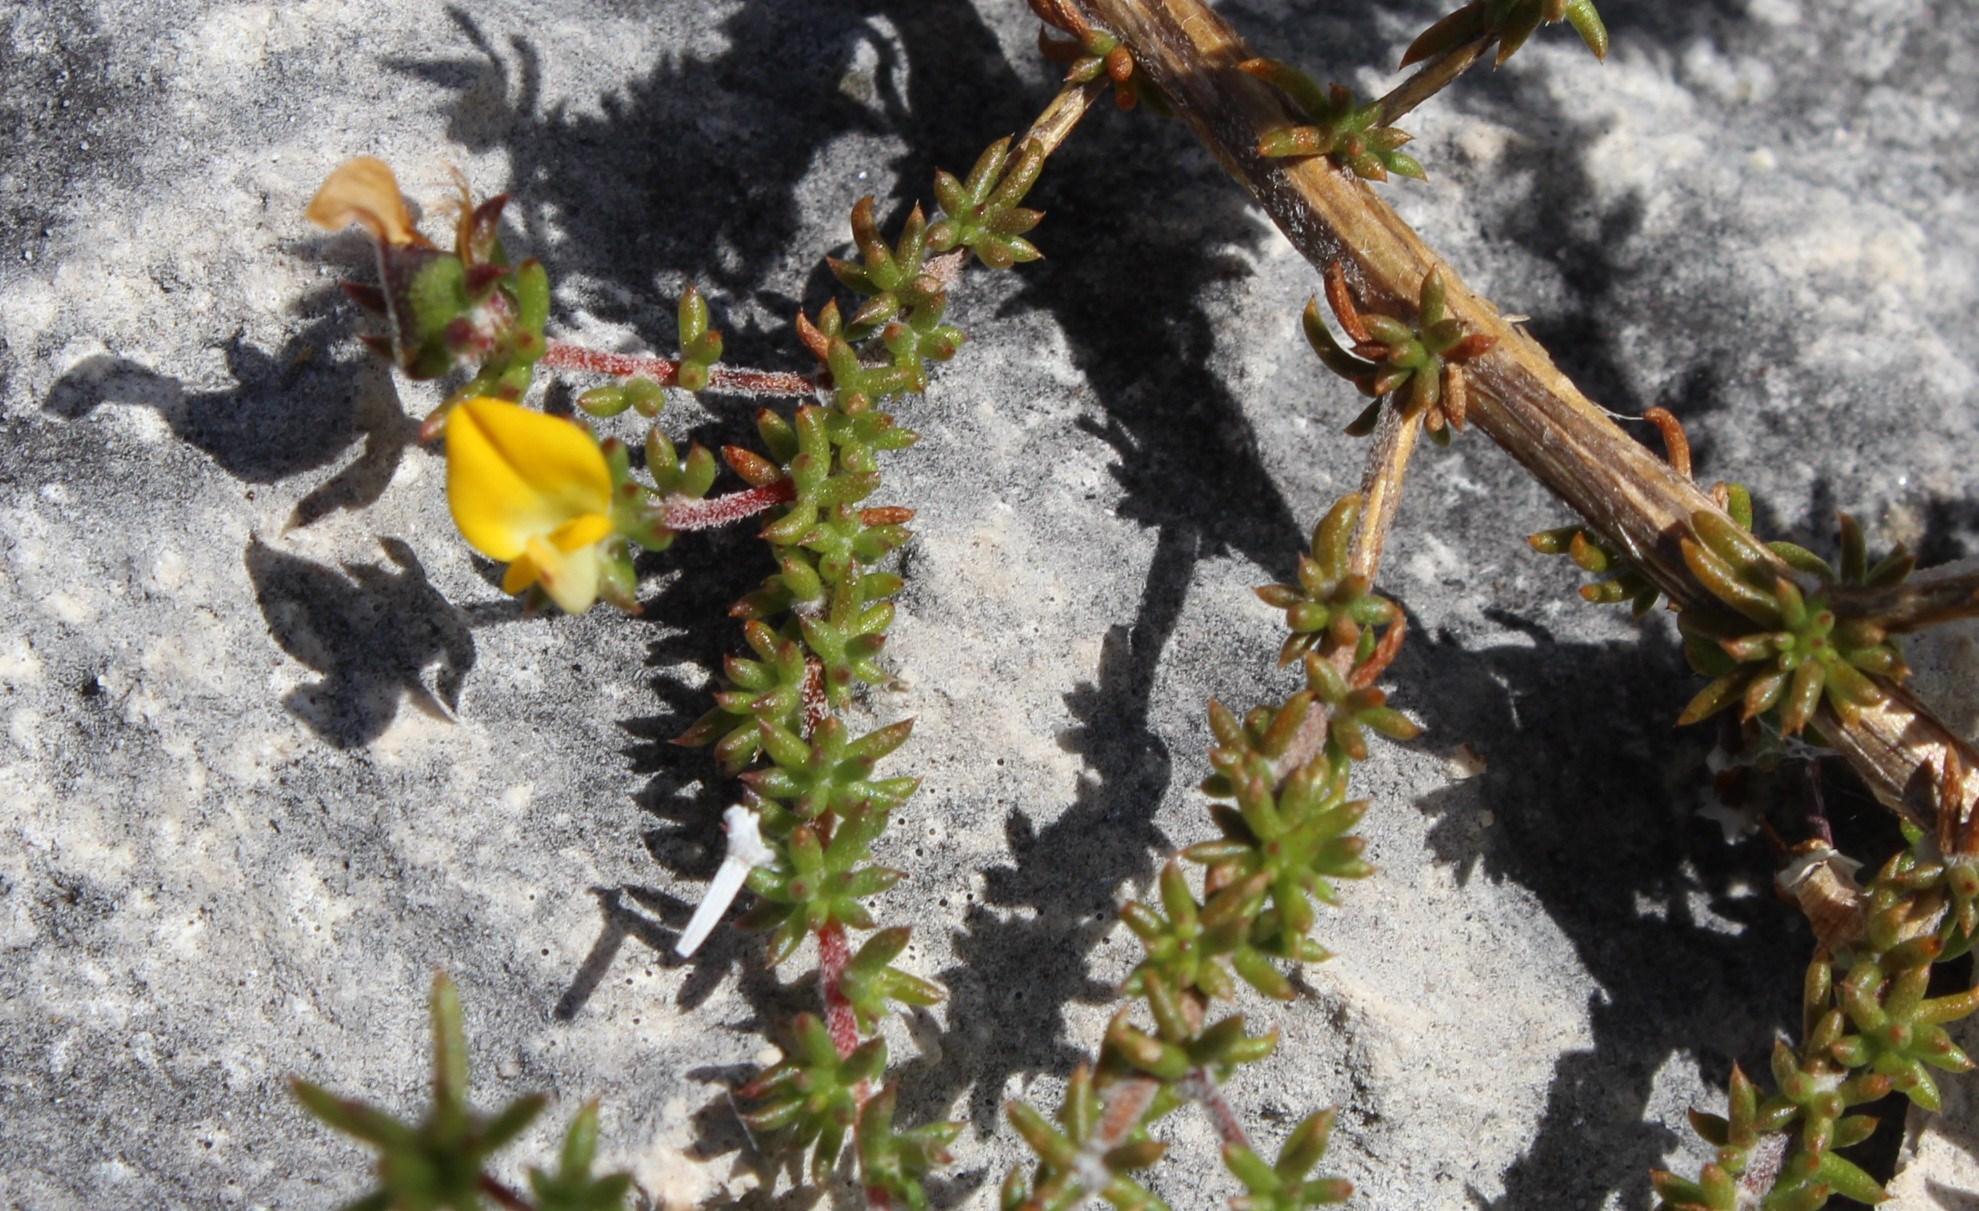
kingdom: Plantae
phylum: Tracheophyta
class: Magnoliopsida
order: Fabales
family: Fabaceae
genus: Aspalathus
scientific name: Aspalathus crassisepala
